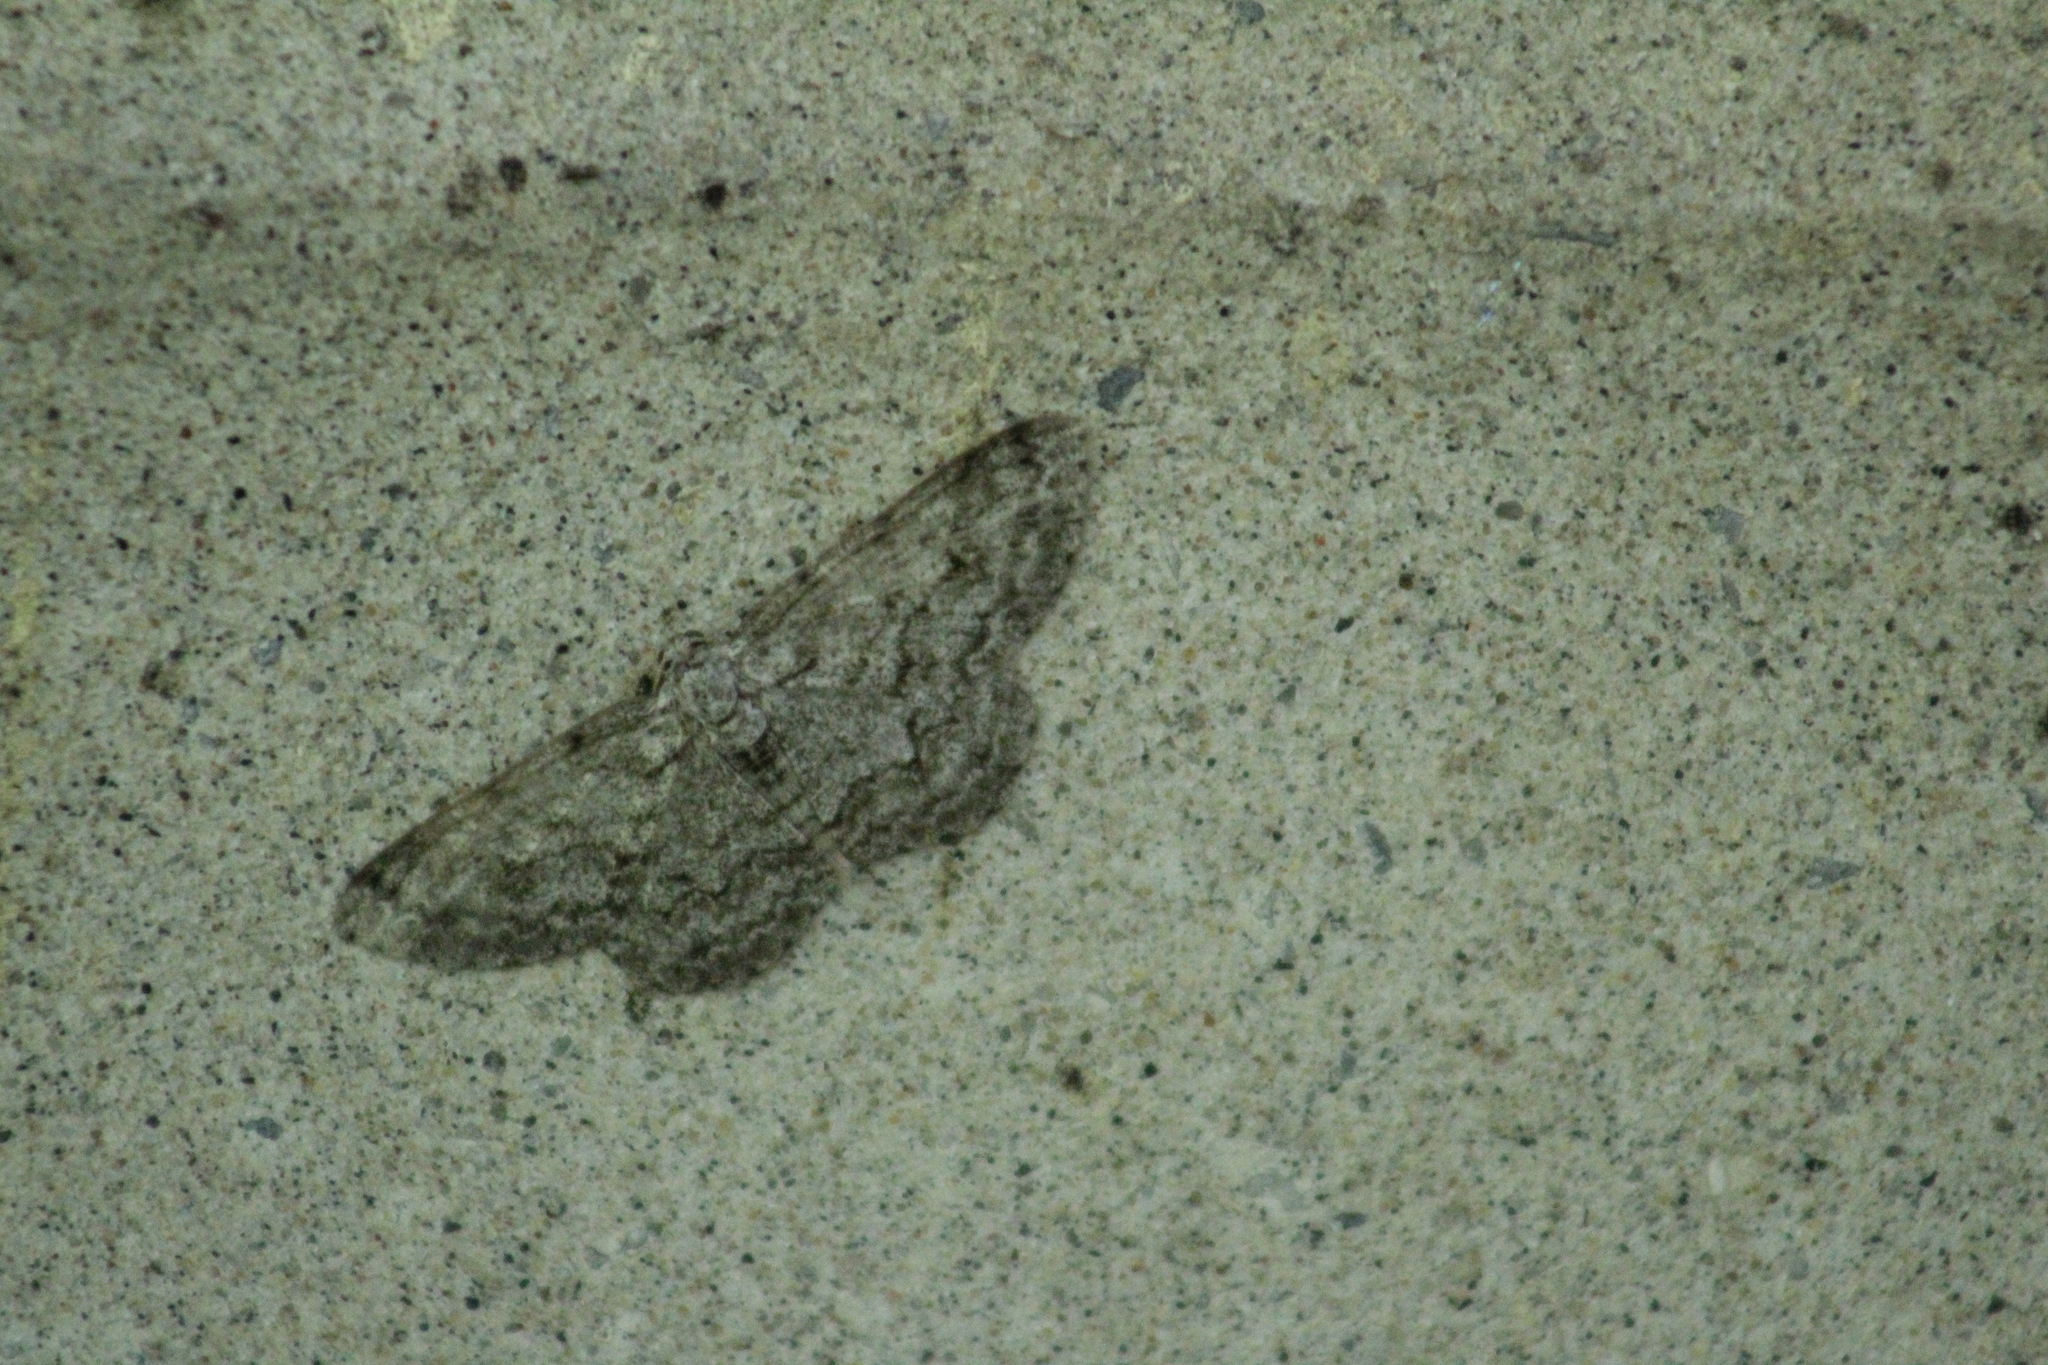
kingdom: Animalia
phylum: Arthropoda
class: Insecta
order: Lepidoptera
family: Geometridae
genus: Ectropis
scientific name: Ectropis crepuscularia
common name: Engrailed
